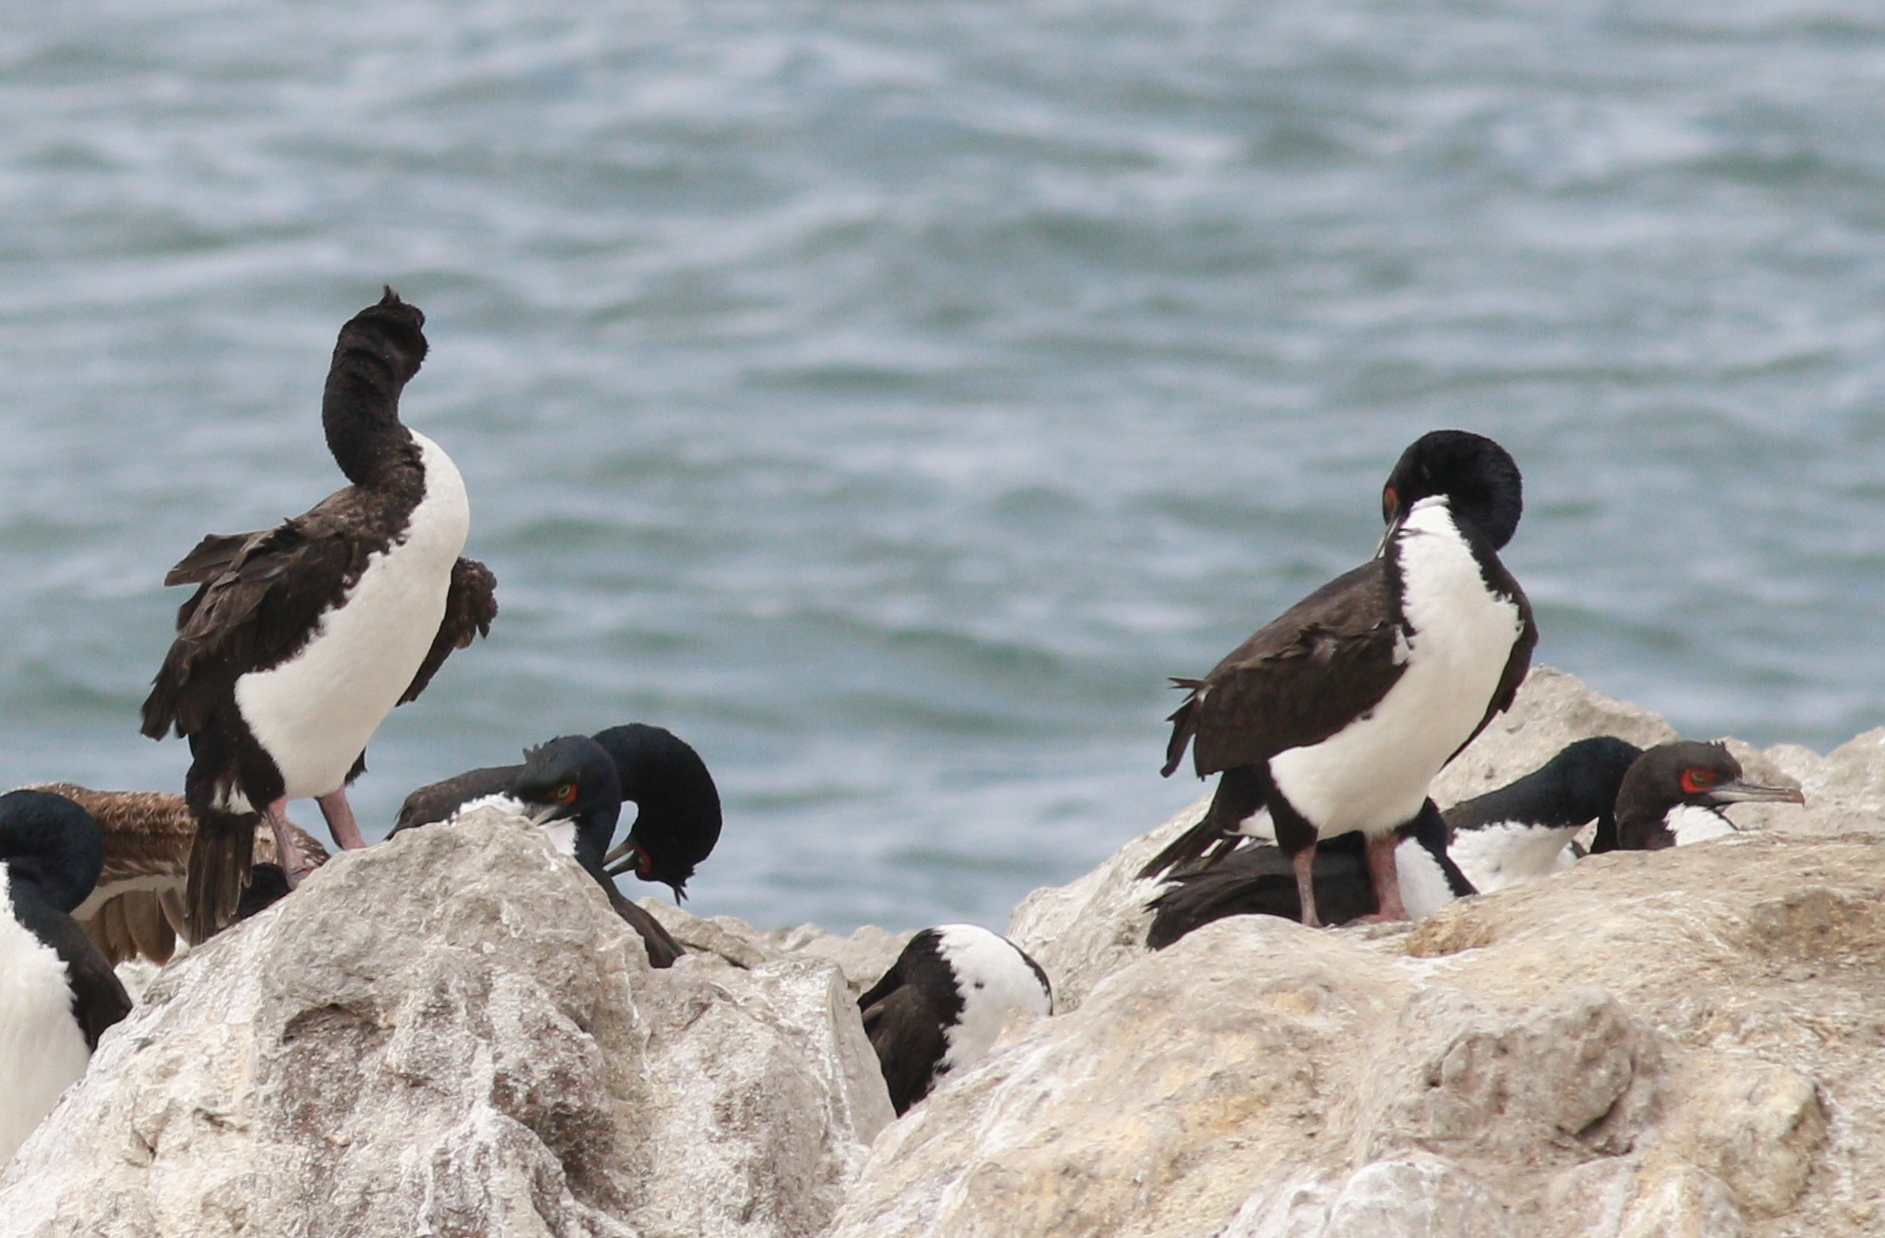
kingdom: Animalia
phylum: Chordata
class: Aves
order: Suliformes
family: Phalacrocoracidae
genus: Leucocarbo
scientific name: Leucocarbo bougainvillii
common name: Guanay cormorant
